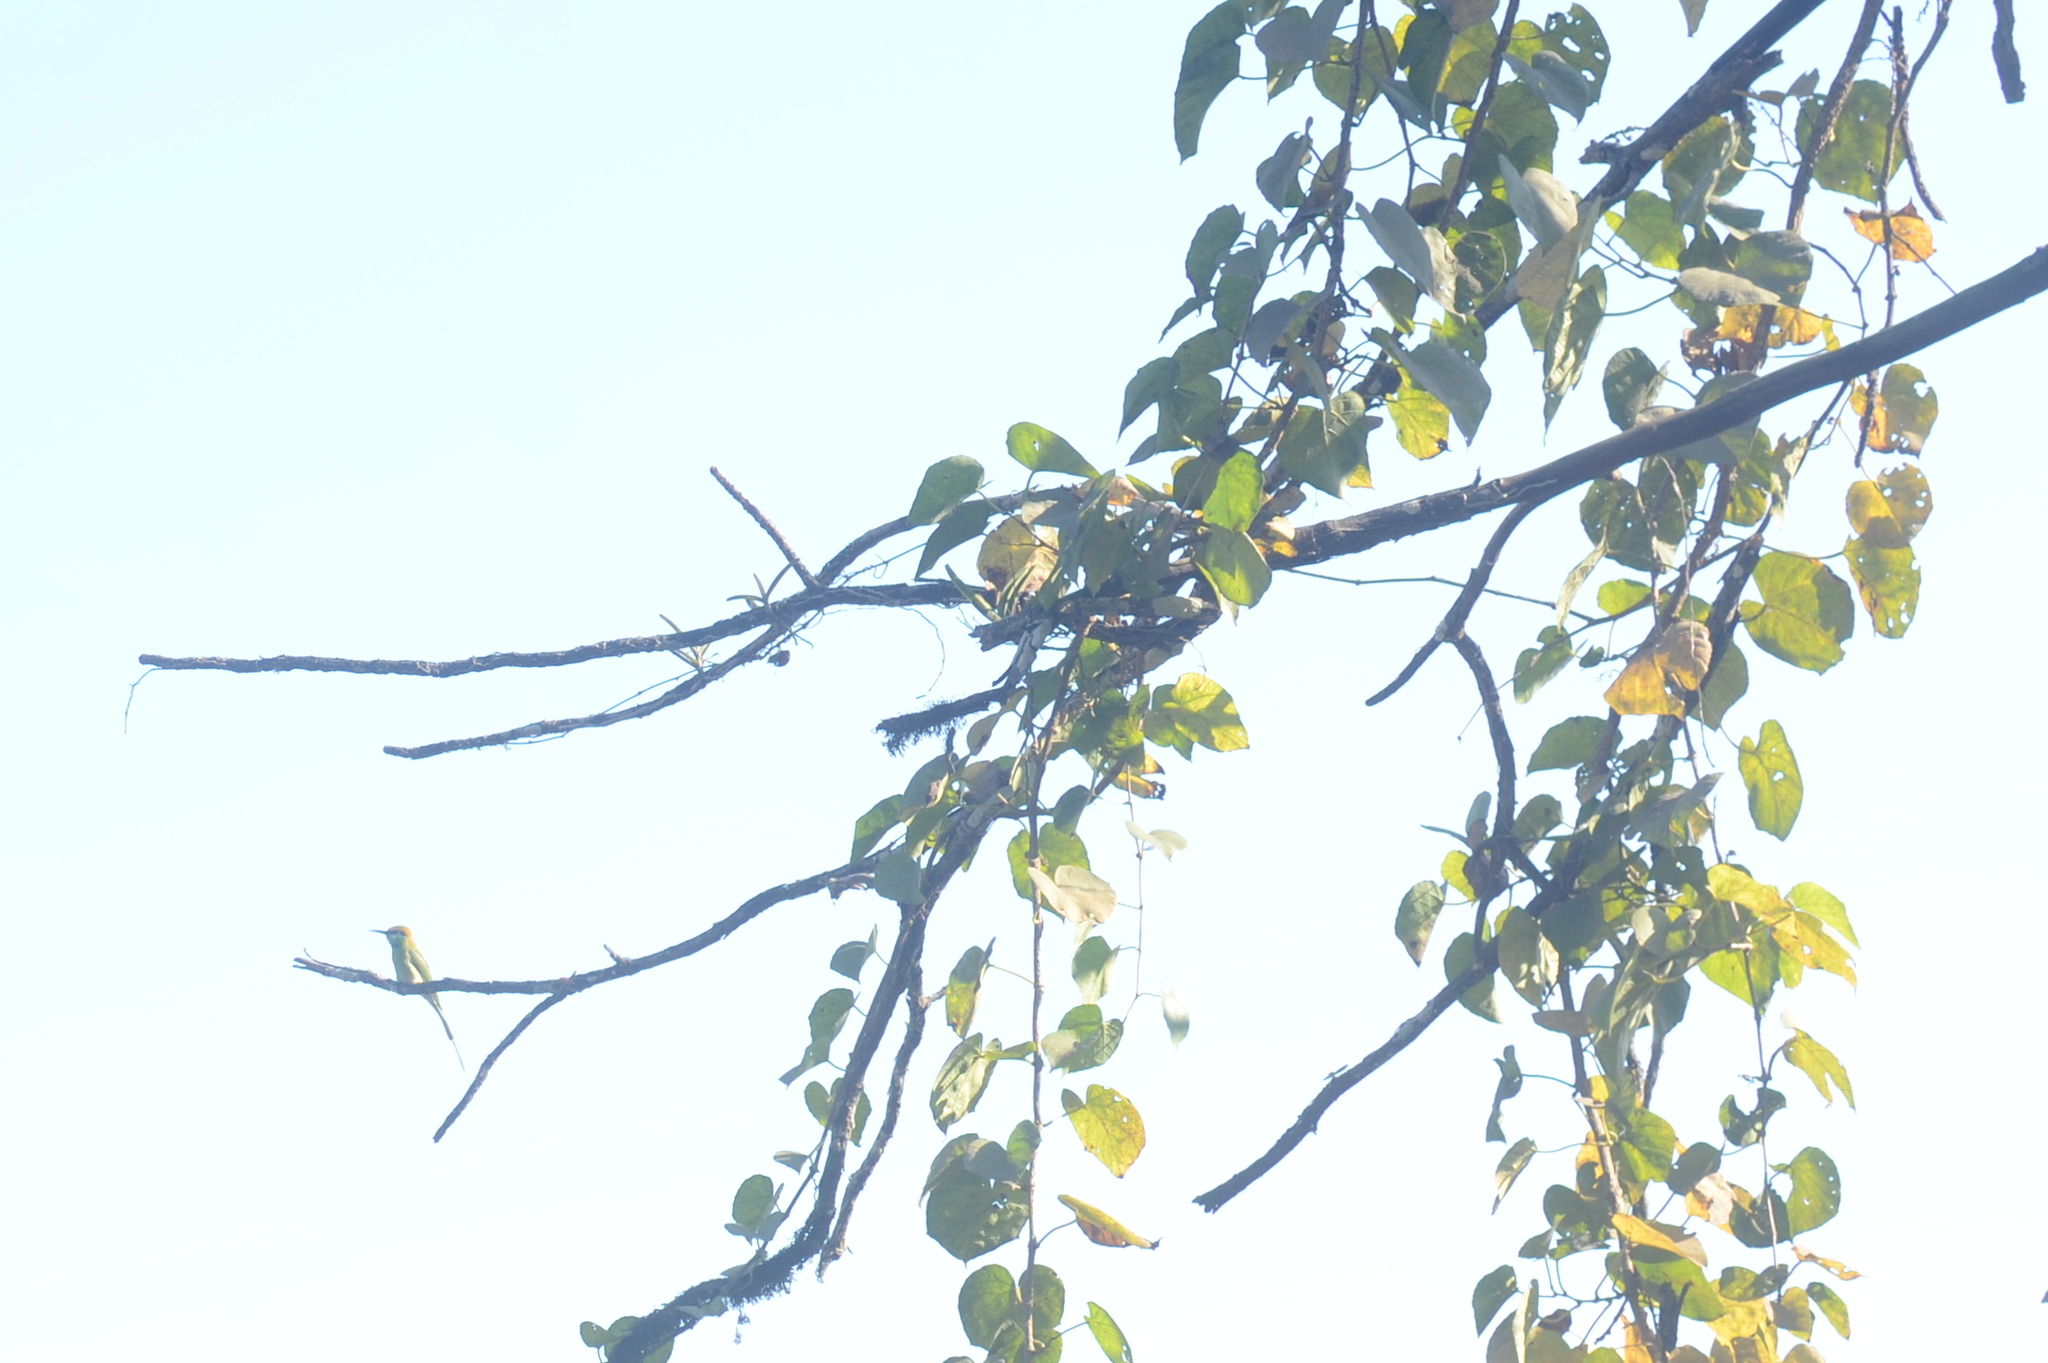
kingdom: Animalia
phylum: Chordata
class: Aves
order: Coraciiformes
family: Meropidae
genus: Merops
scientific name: Merops orientalis
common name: Green bee-eater
